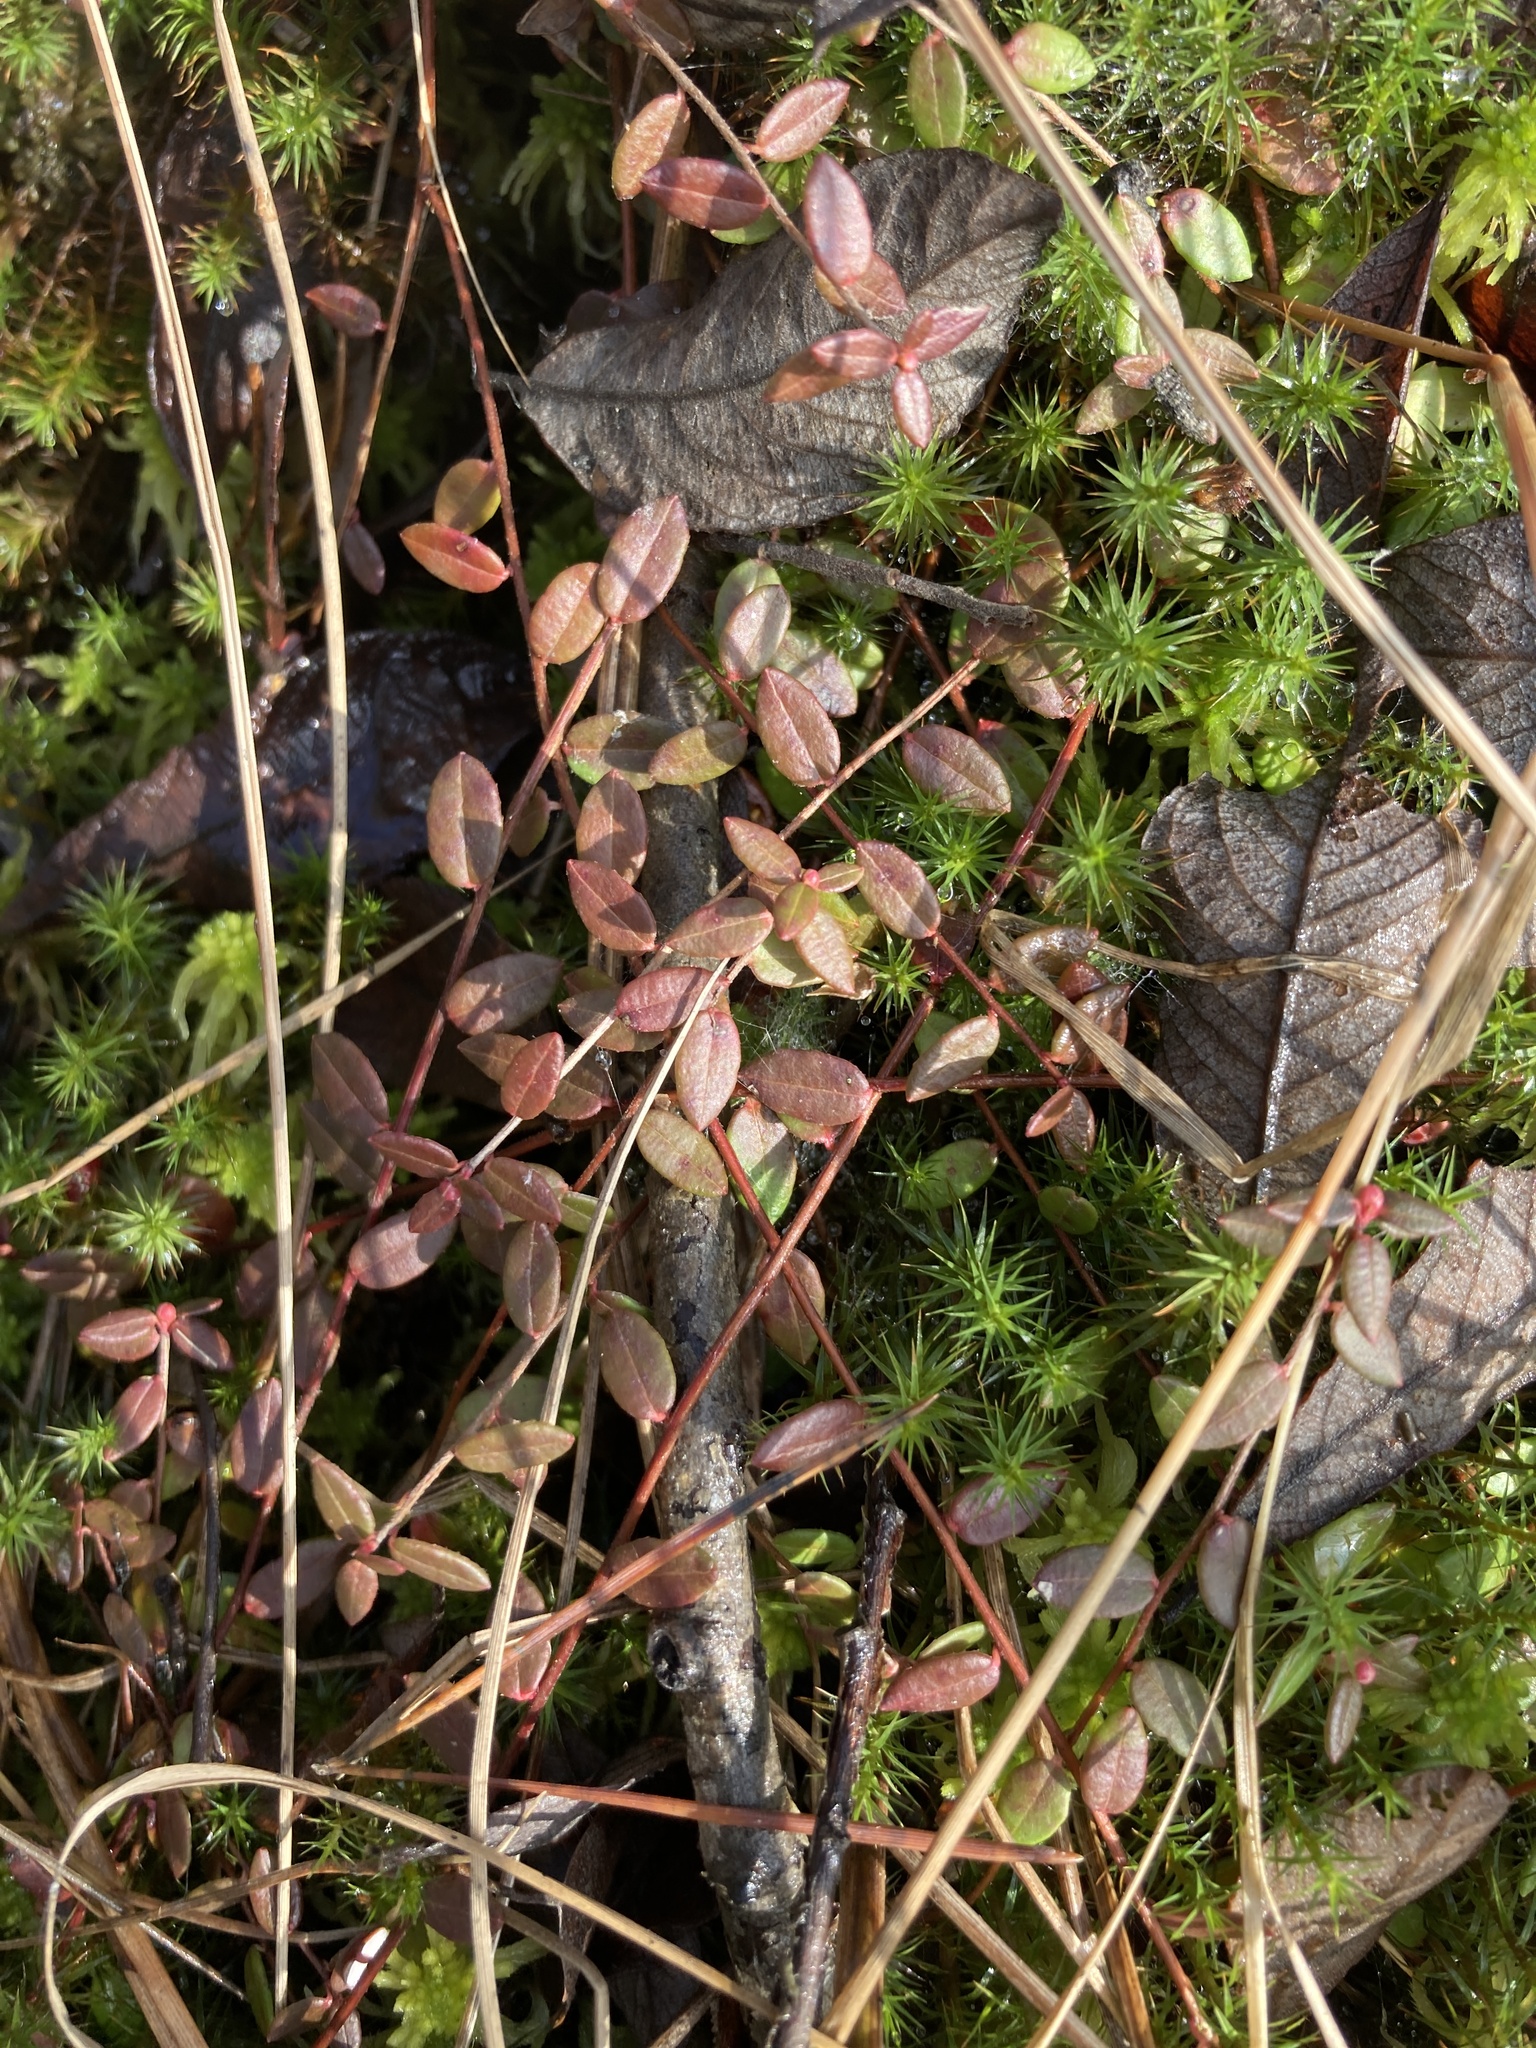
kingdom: Plantae
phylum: Tracheophyta
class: Magnoliopsida
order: Ericales
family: Ericaceae
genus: Vaccinium
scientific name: Vaccinium oxycoccos
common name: Cranberry
